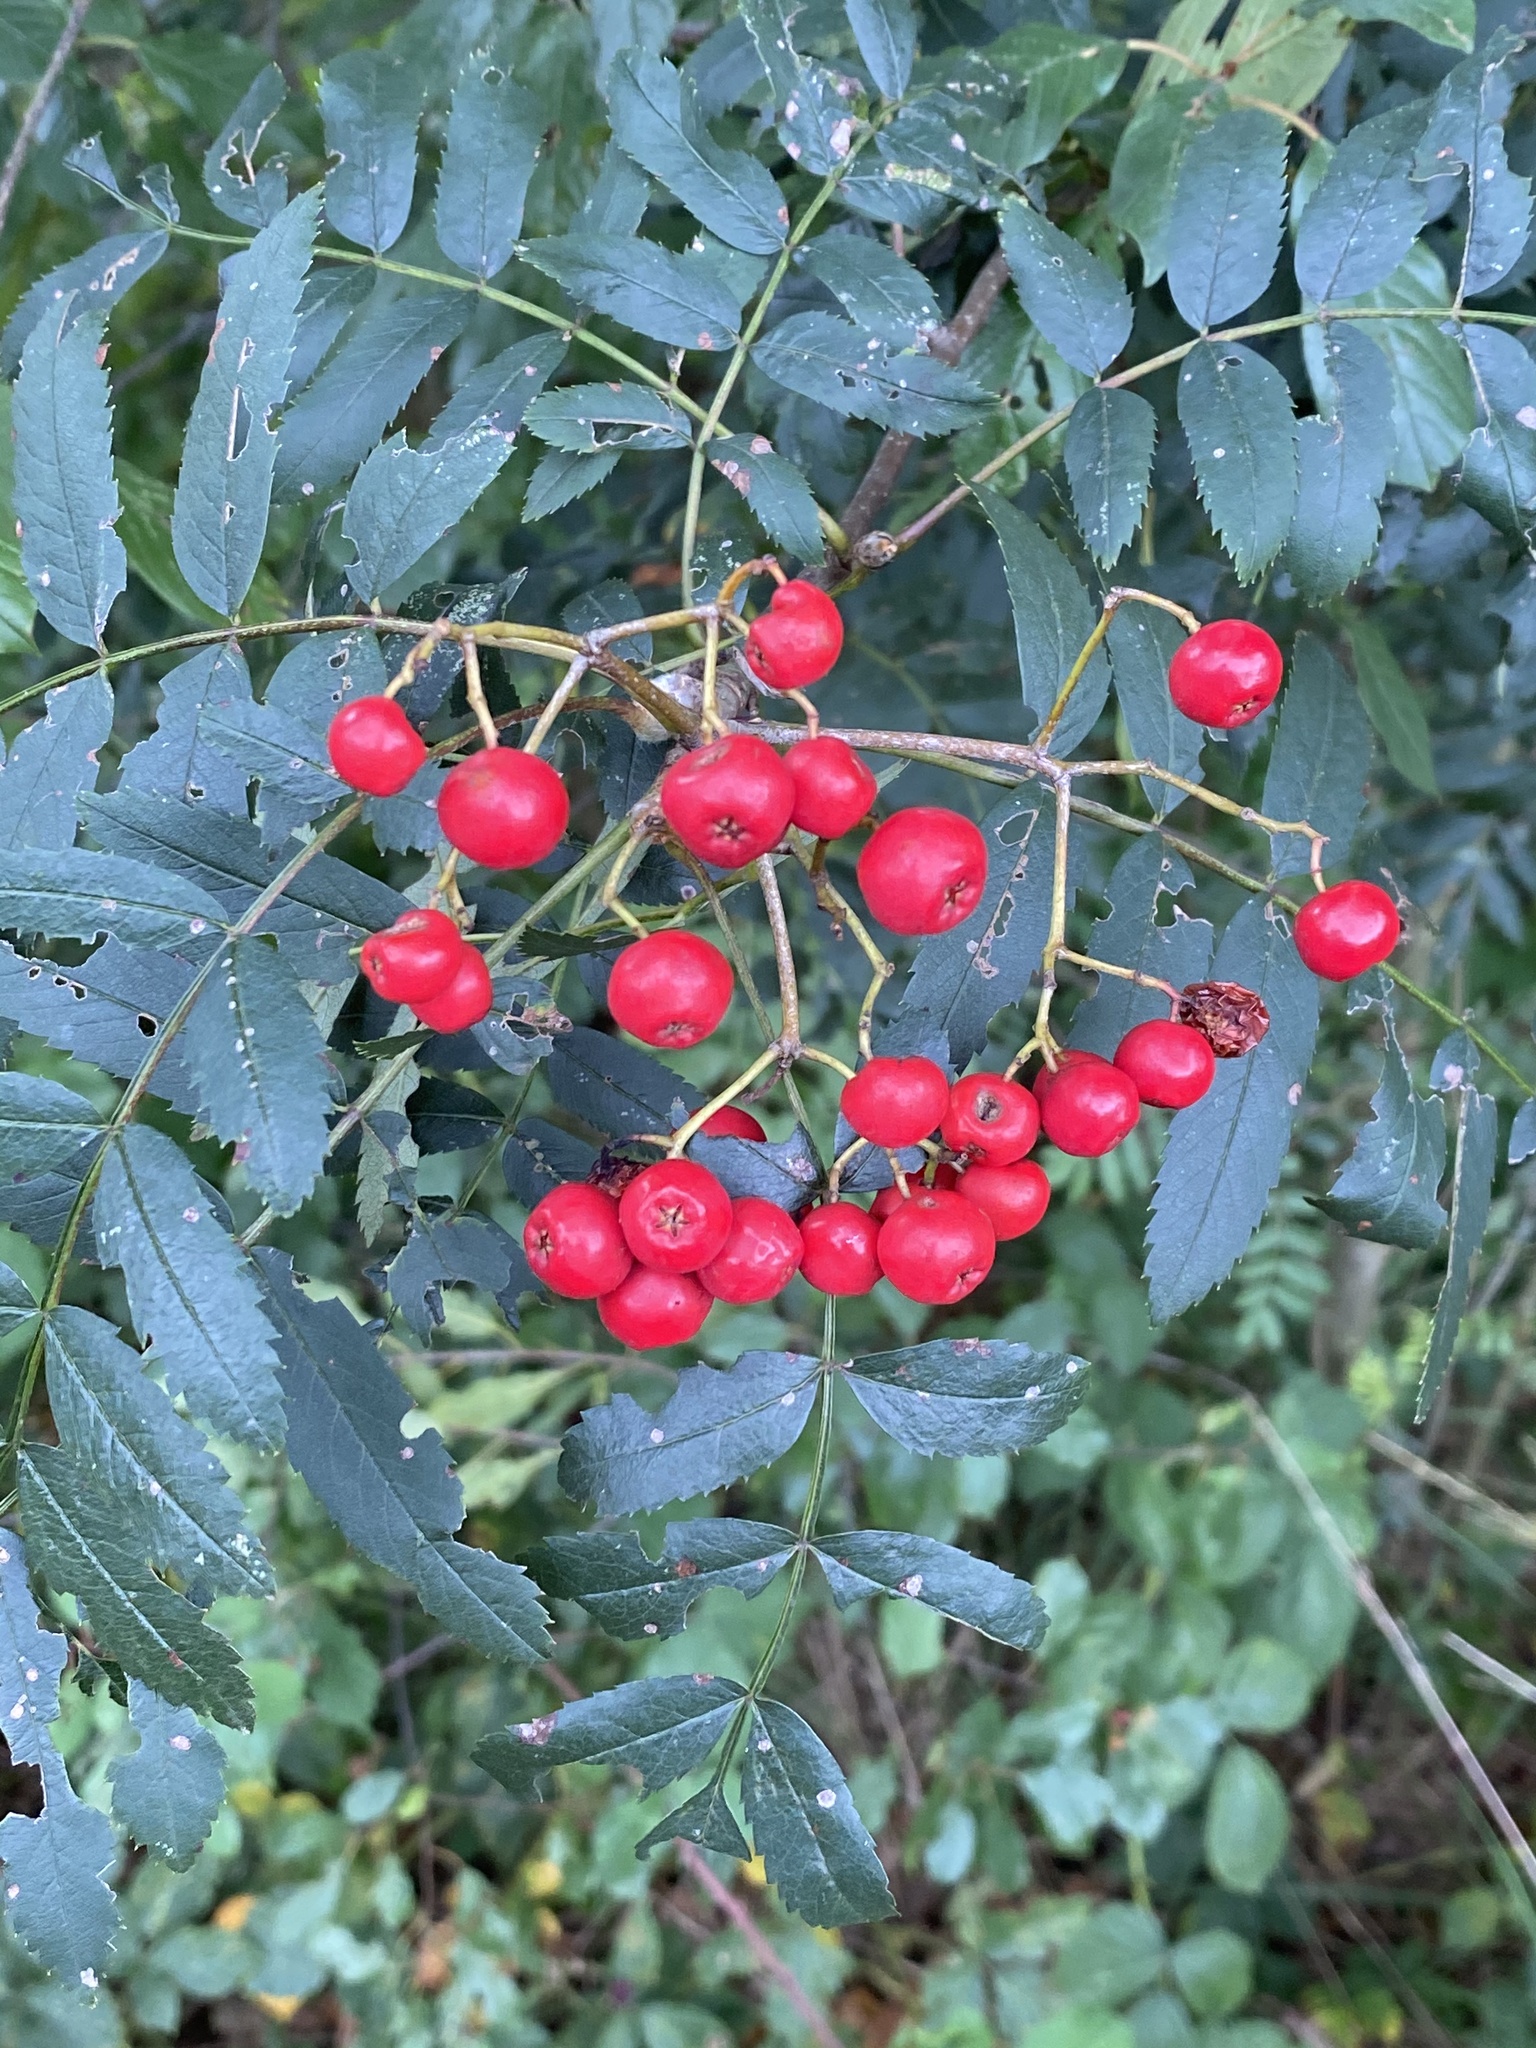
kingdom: Plantae
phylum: Tracheophyta
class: Magnoliopsida
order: Rosales
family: Rosaceae
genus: Sorbus
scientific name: Sorbus aucuparia
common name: Rowan
